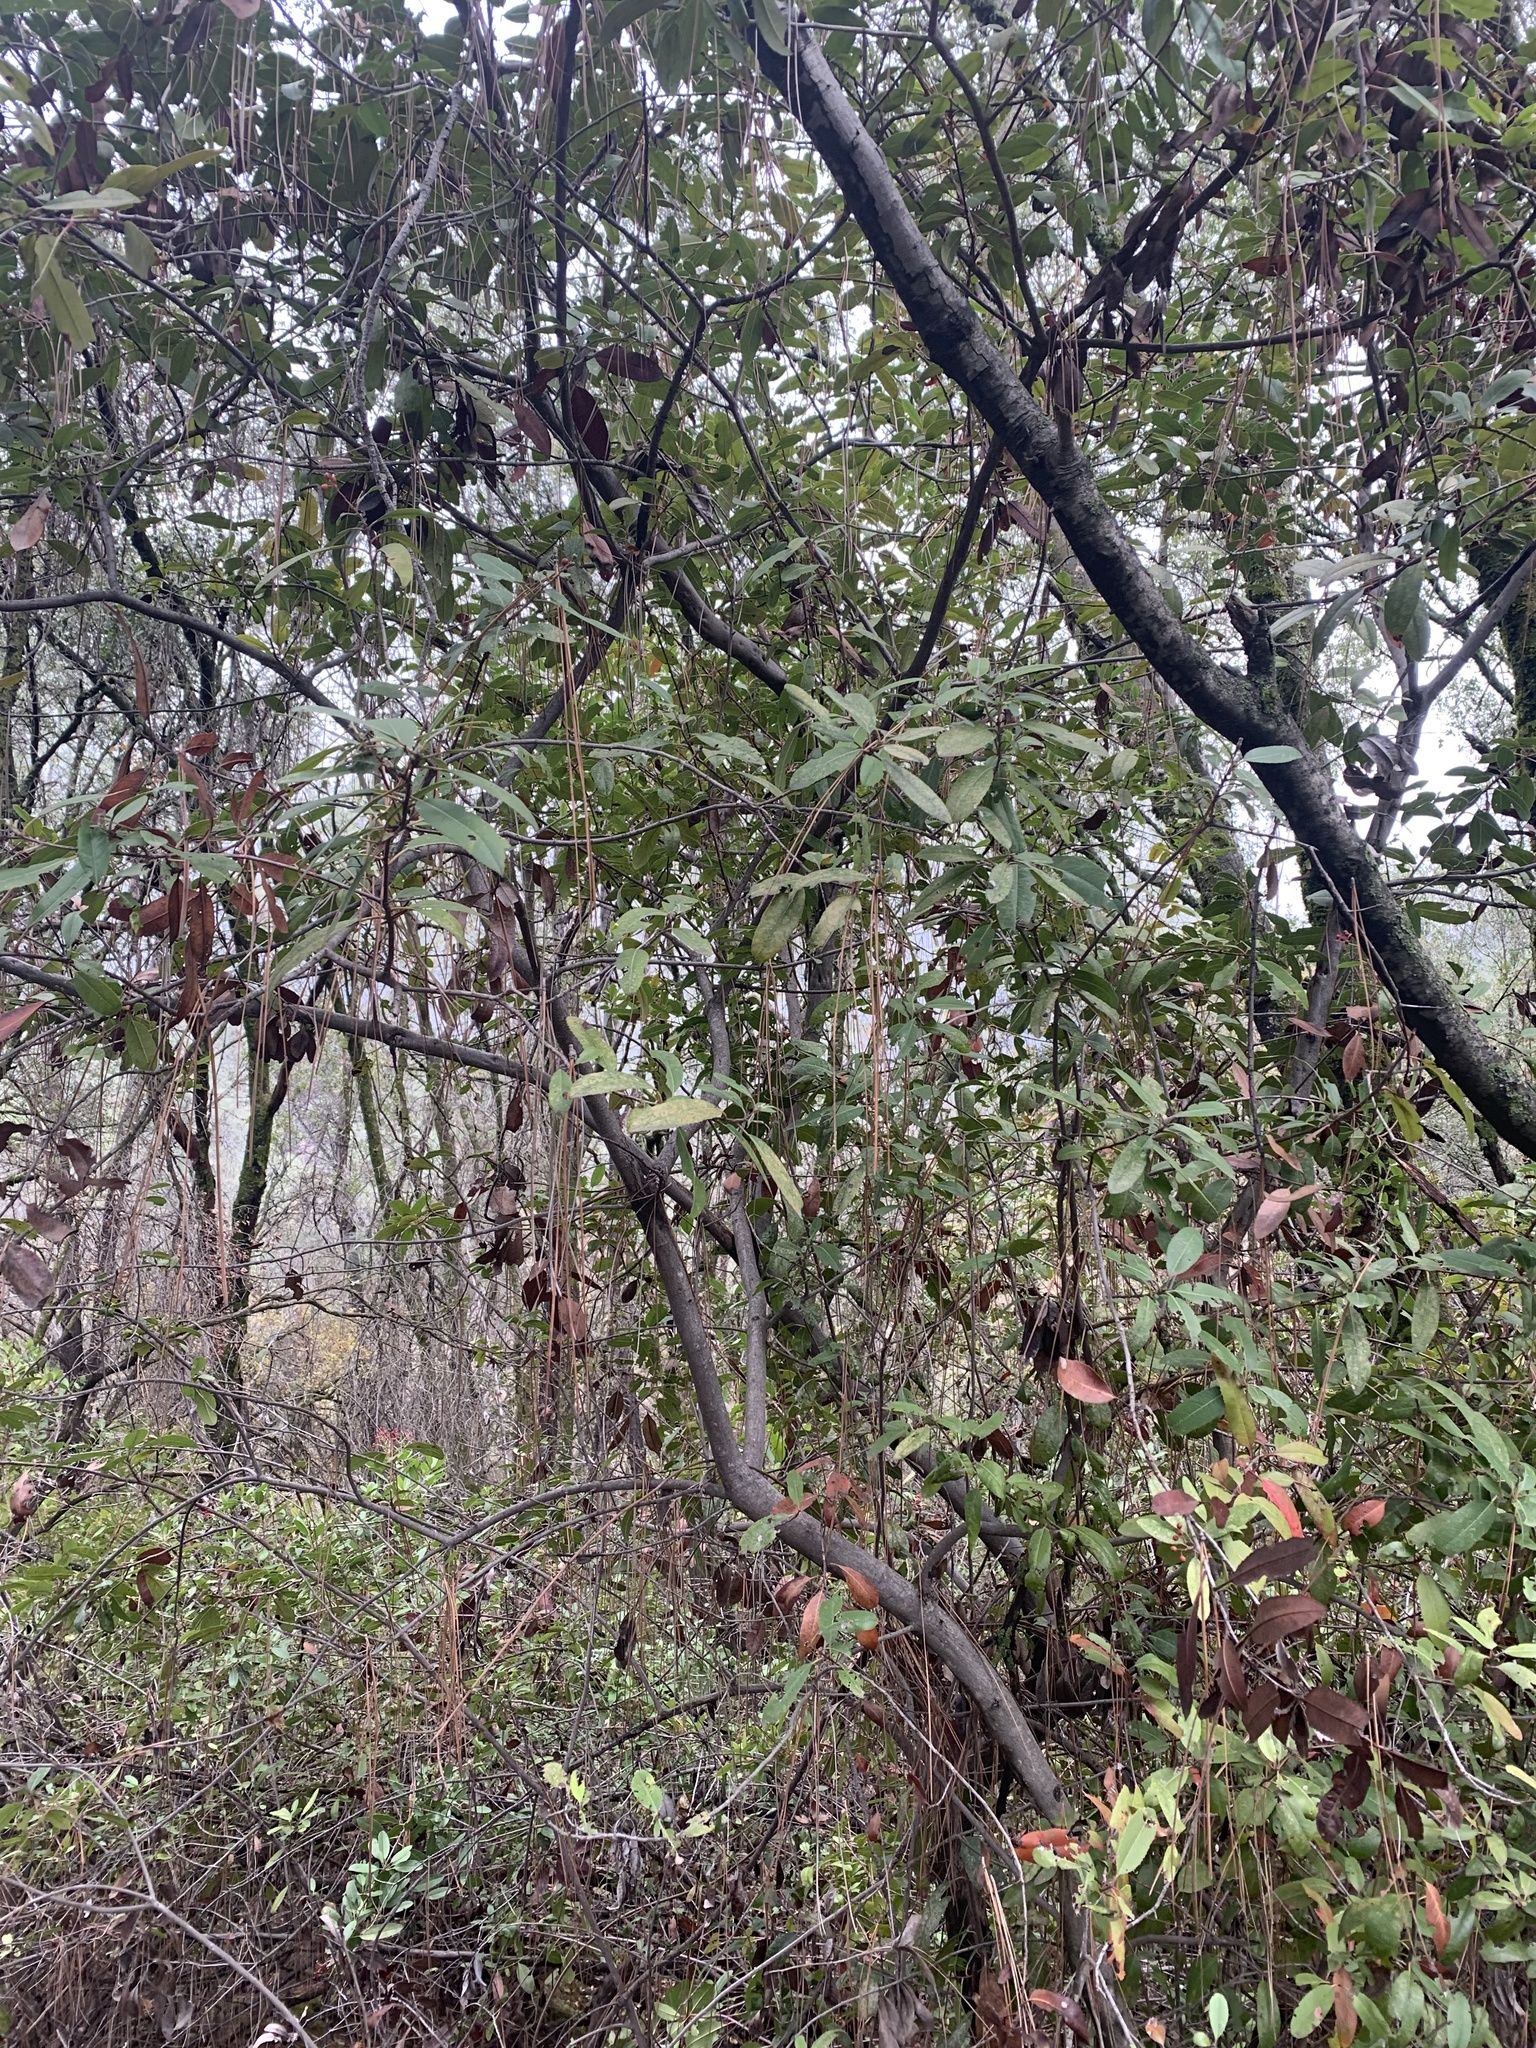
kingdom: Plantae
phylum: Tracheophyta
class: Magnoliopsida
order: Rosales
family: Rosaceae
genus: Heteromeles
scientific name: Heteromeles arbutifolia
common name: California-holly
